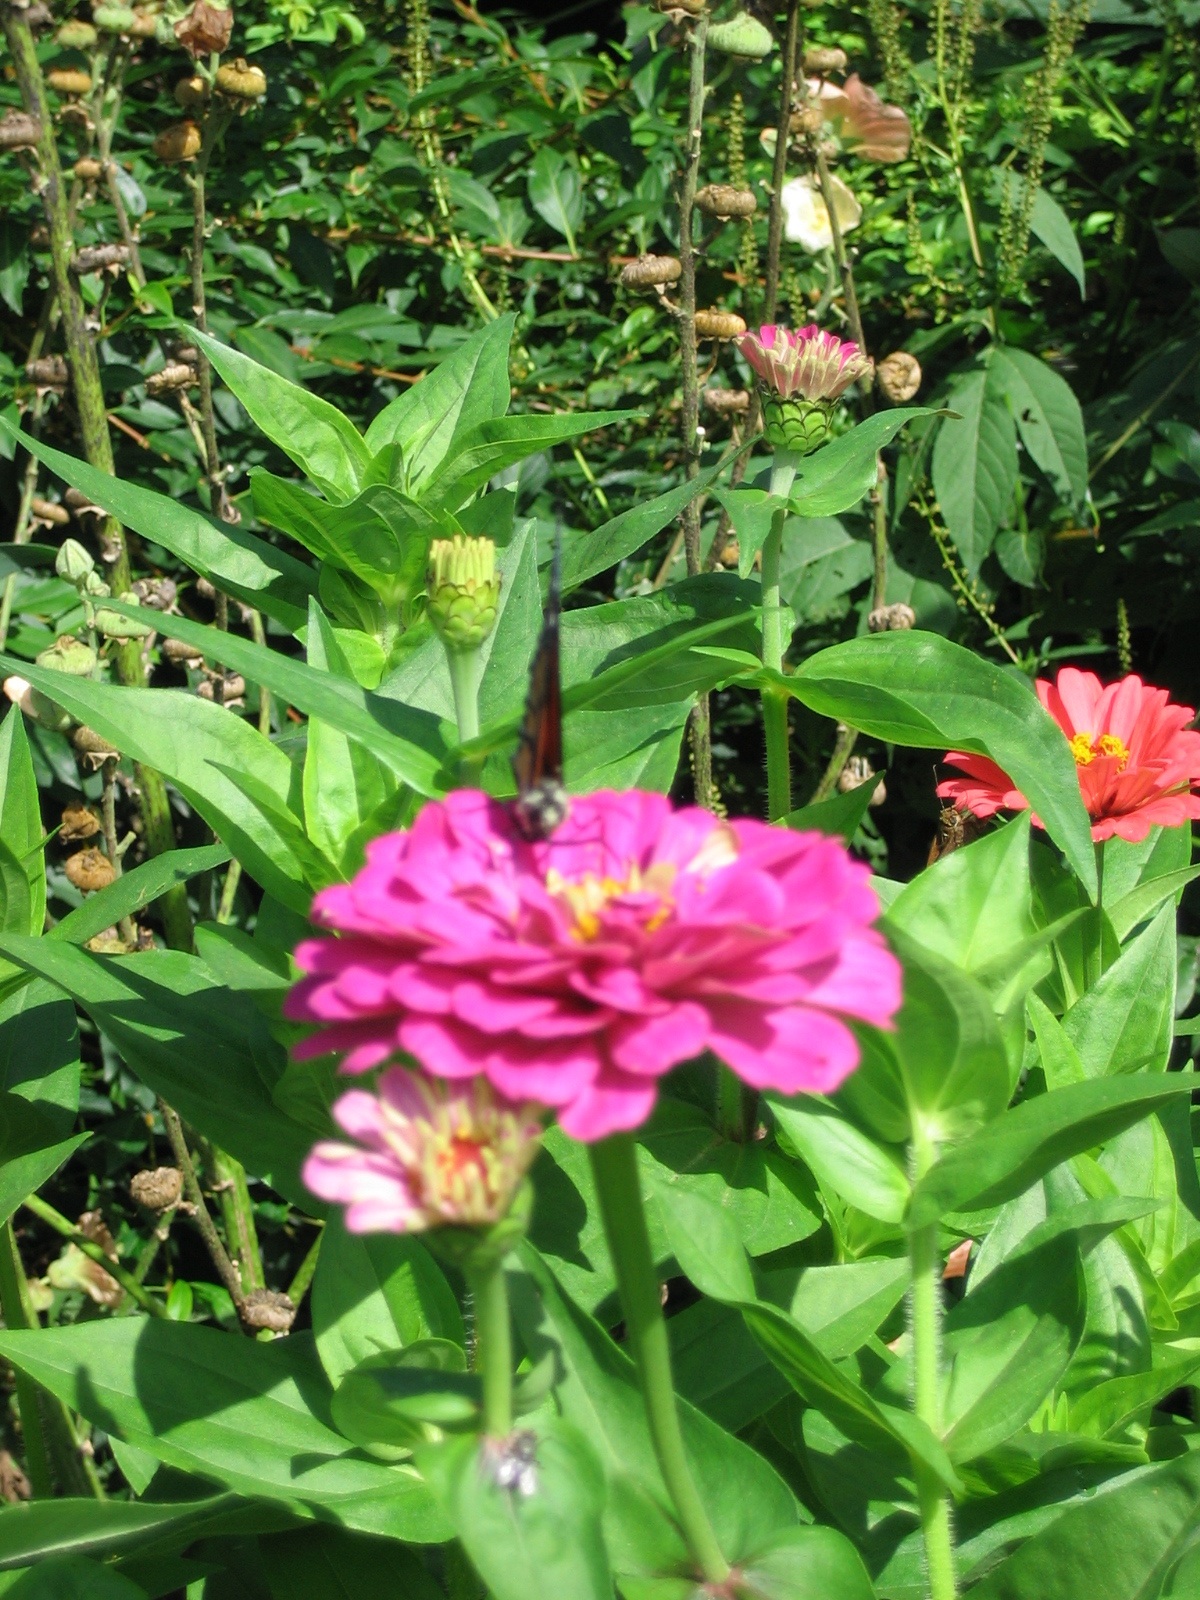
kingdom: Animalia
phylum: Arthropoda
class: Insecta
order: Lepidoptera
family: Nymphalidae
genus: Danaus
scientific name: Danaus plexippus
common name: Monarch
